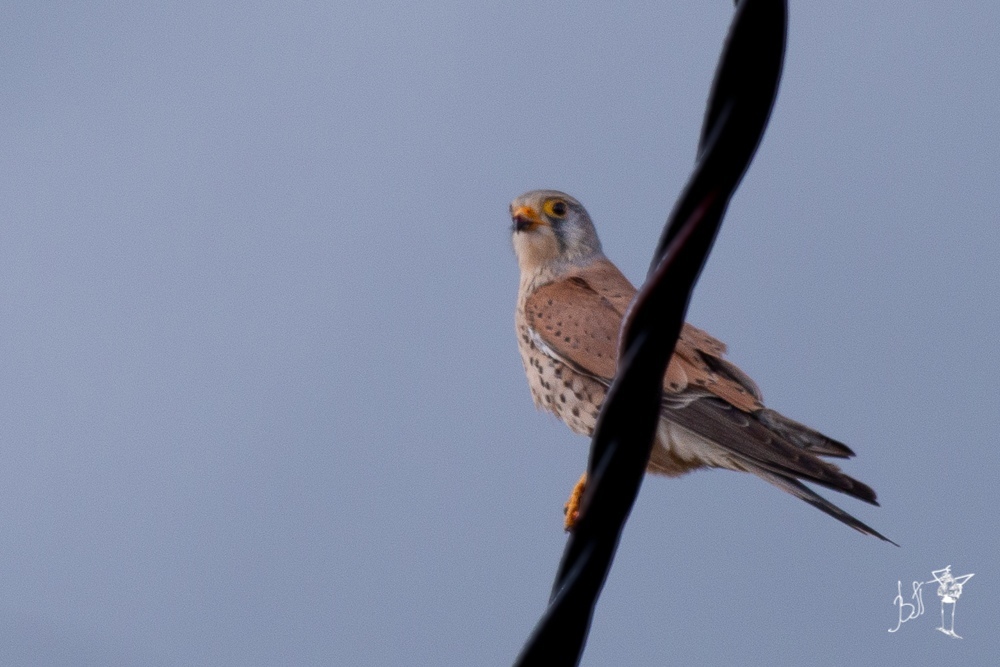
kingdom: Animalia
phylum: Chordata
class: Aves
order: Falconiformes
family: Falconidae
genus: Falco
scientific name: Falco tinnunculus
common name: Common kestrel
